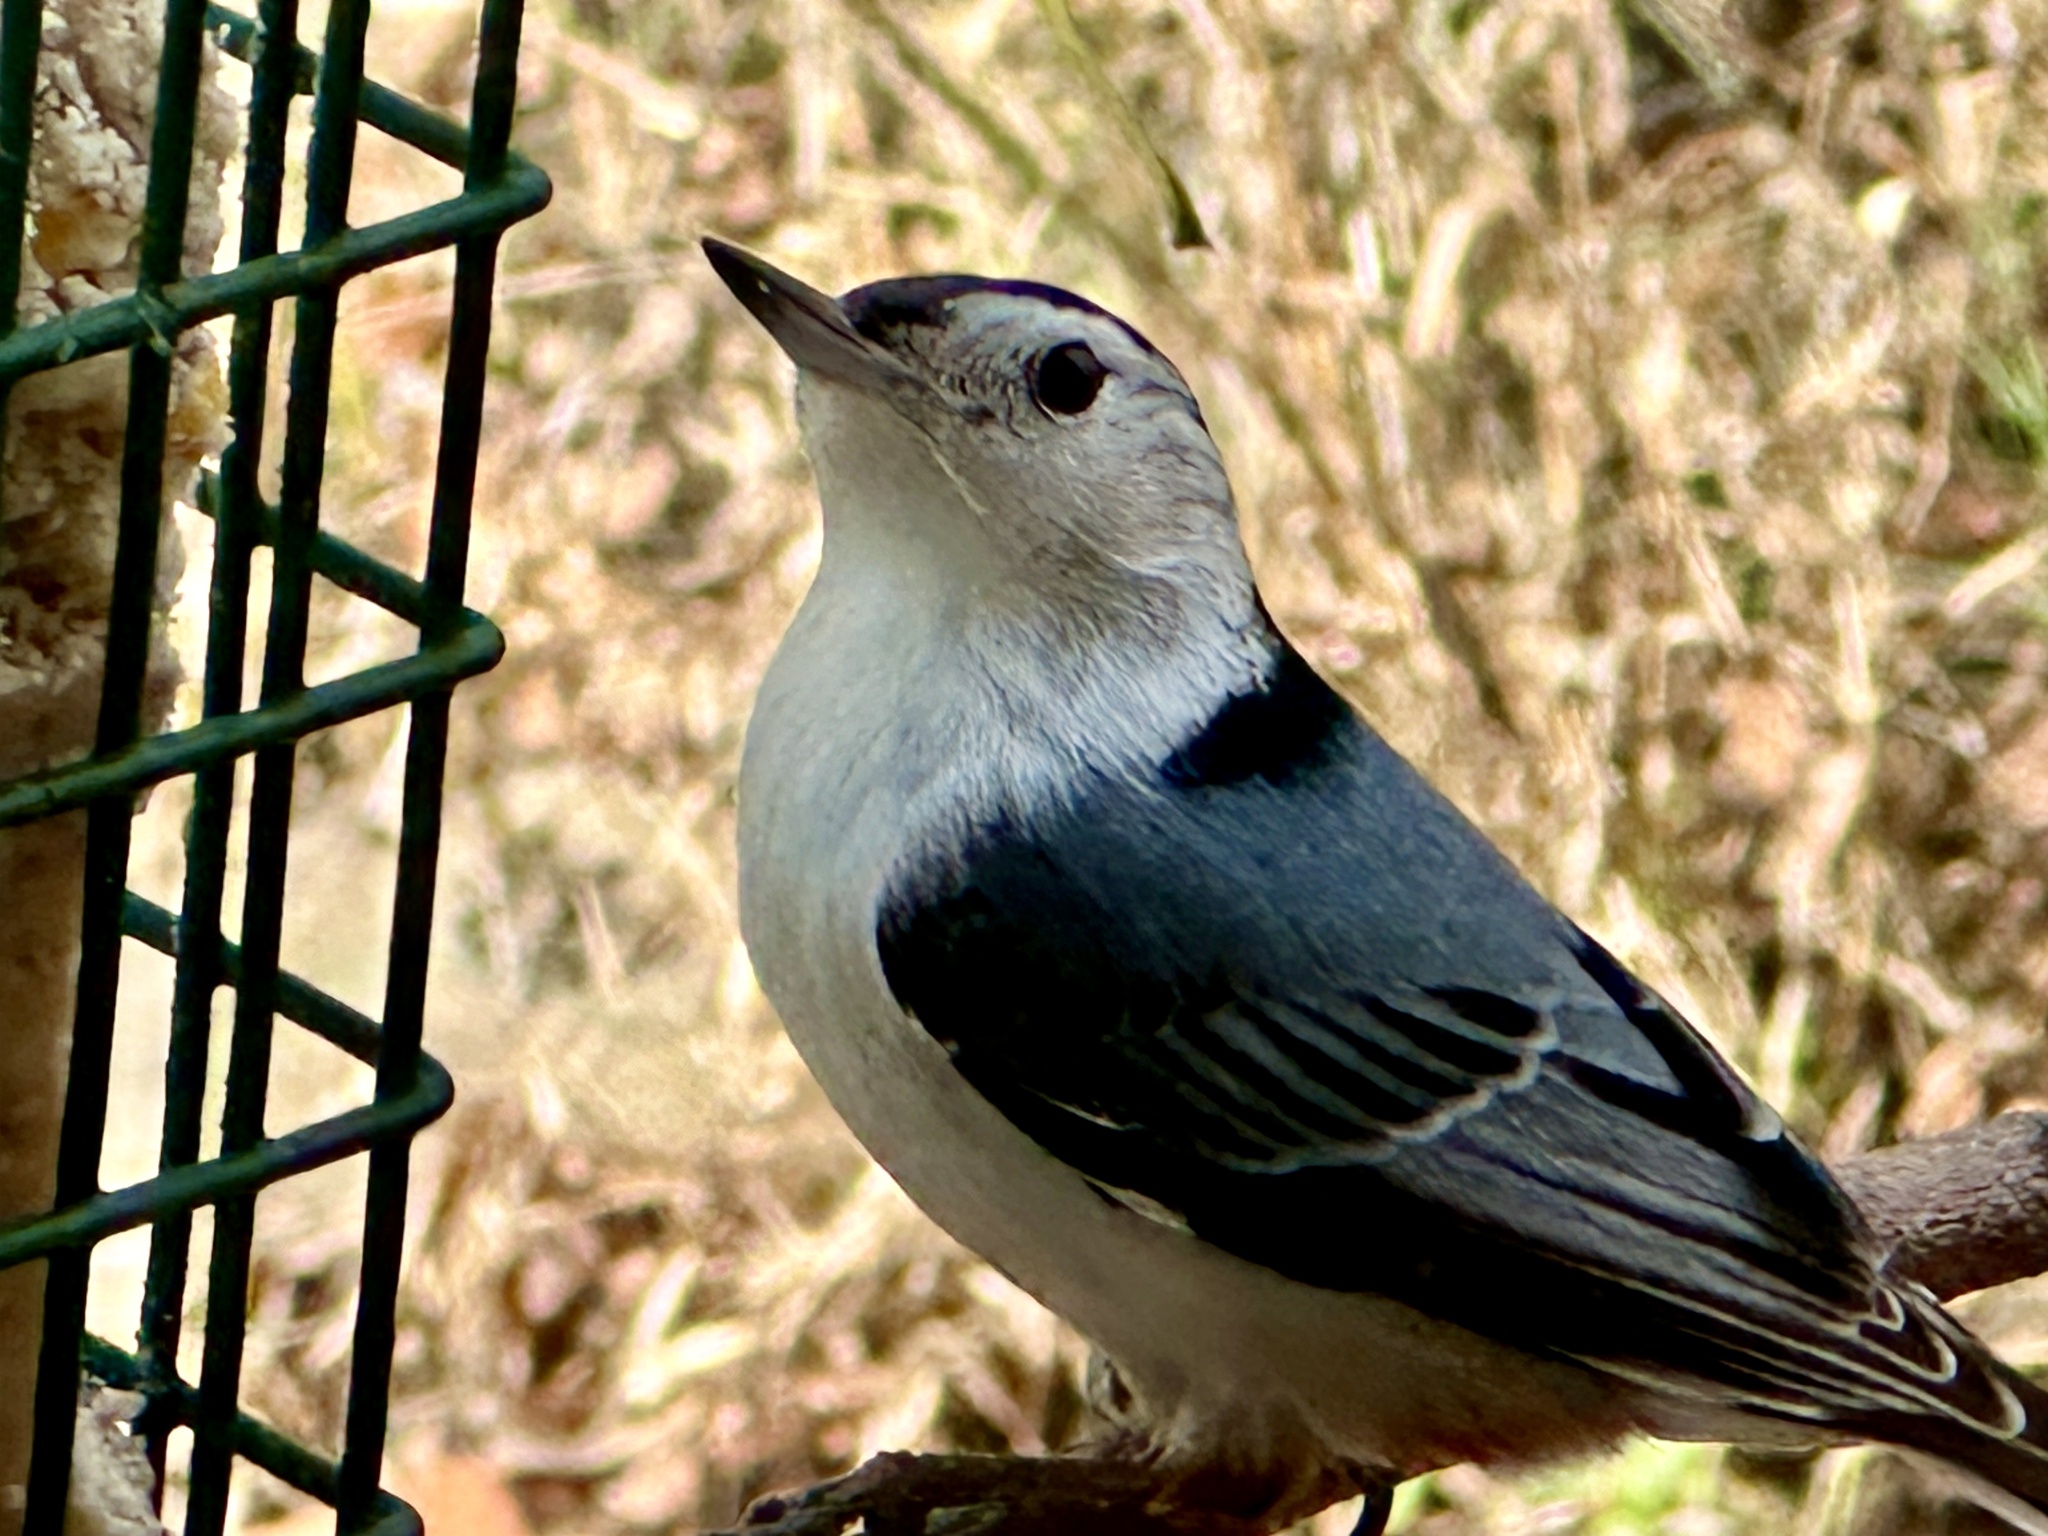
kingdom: Animalia
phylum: Chordata
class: Aves
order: Passeriformes
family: Sittidae
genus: Sitta
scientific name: Sitta carolinensis
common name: White-breasted nuthatch
